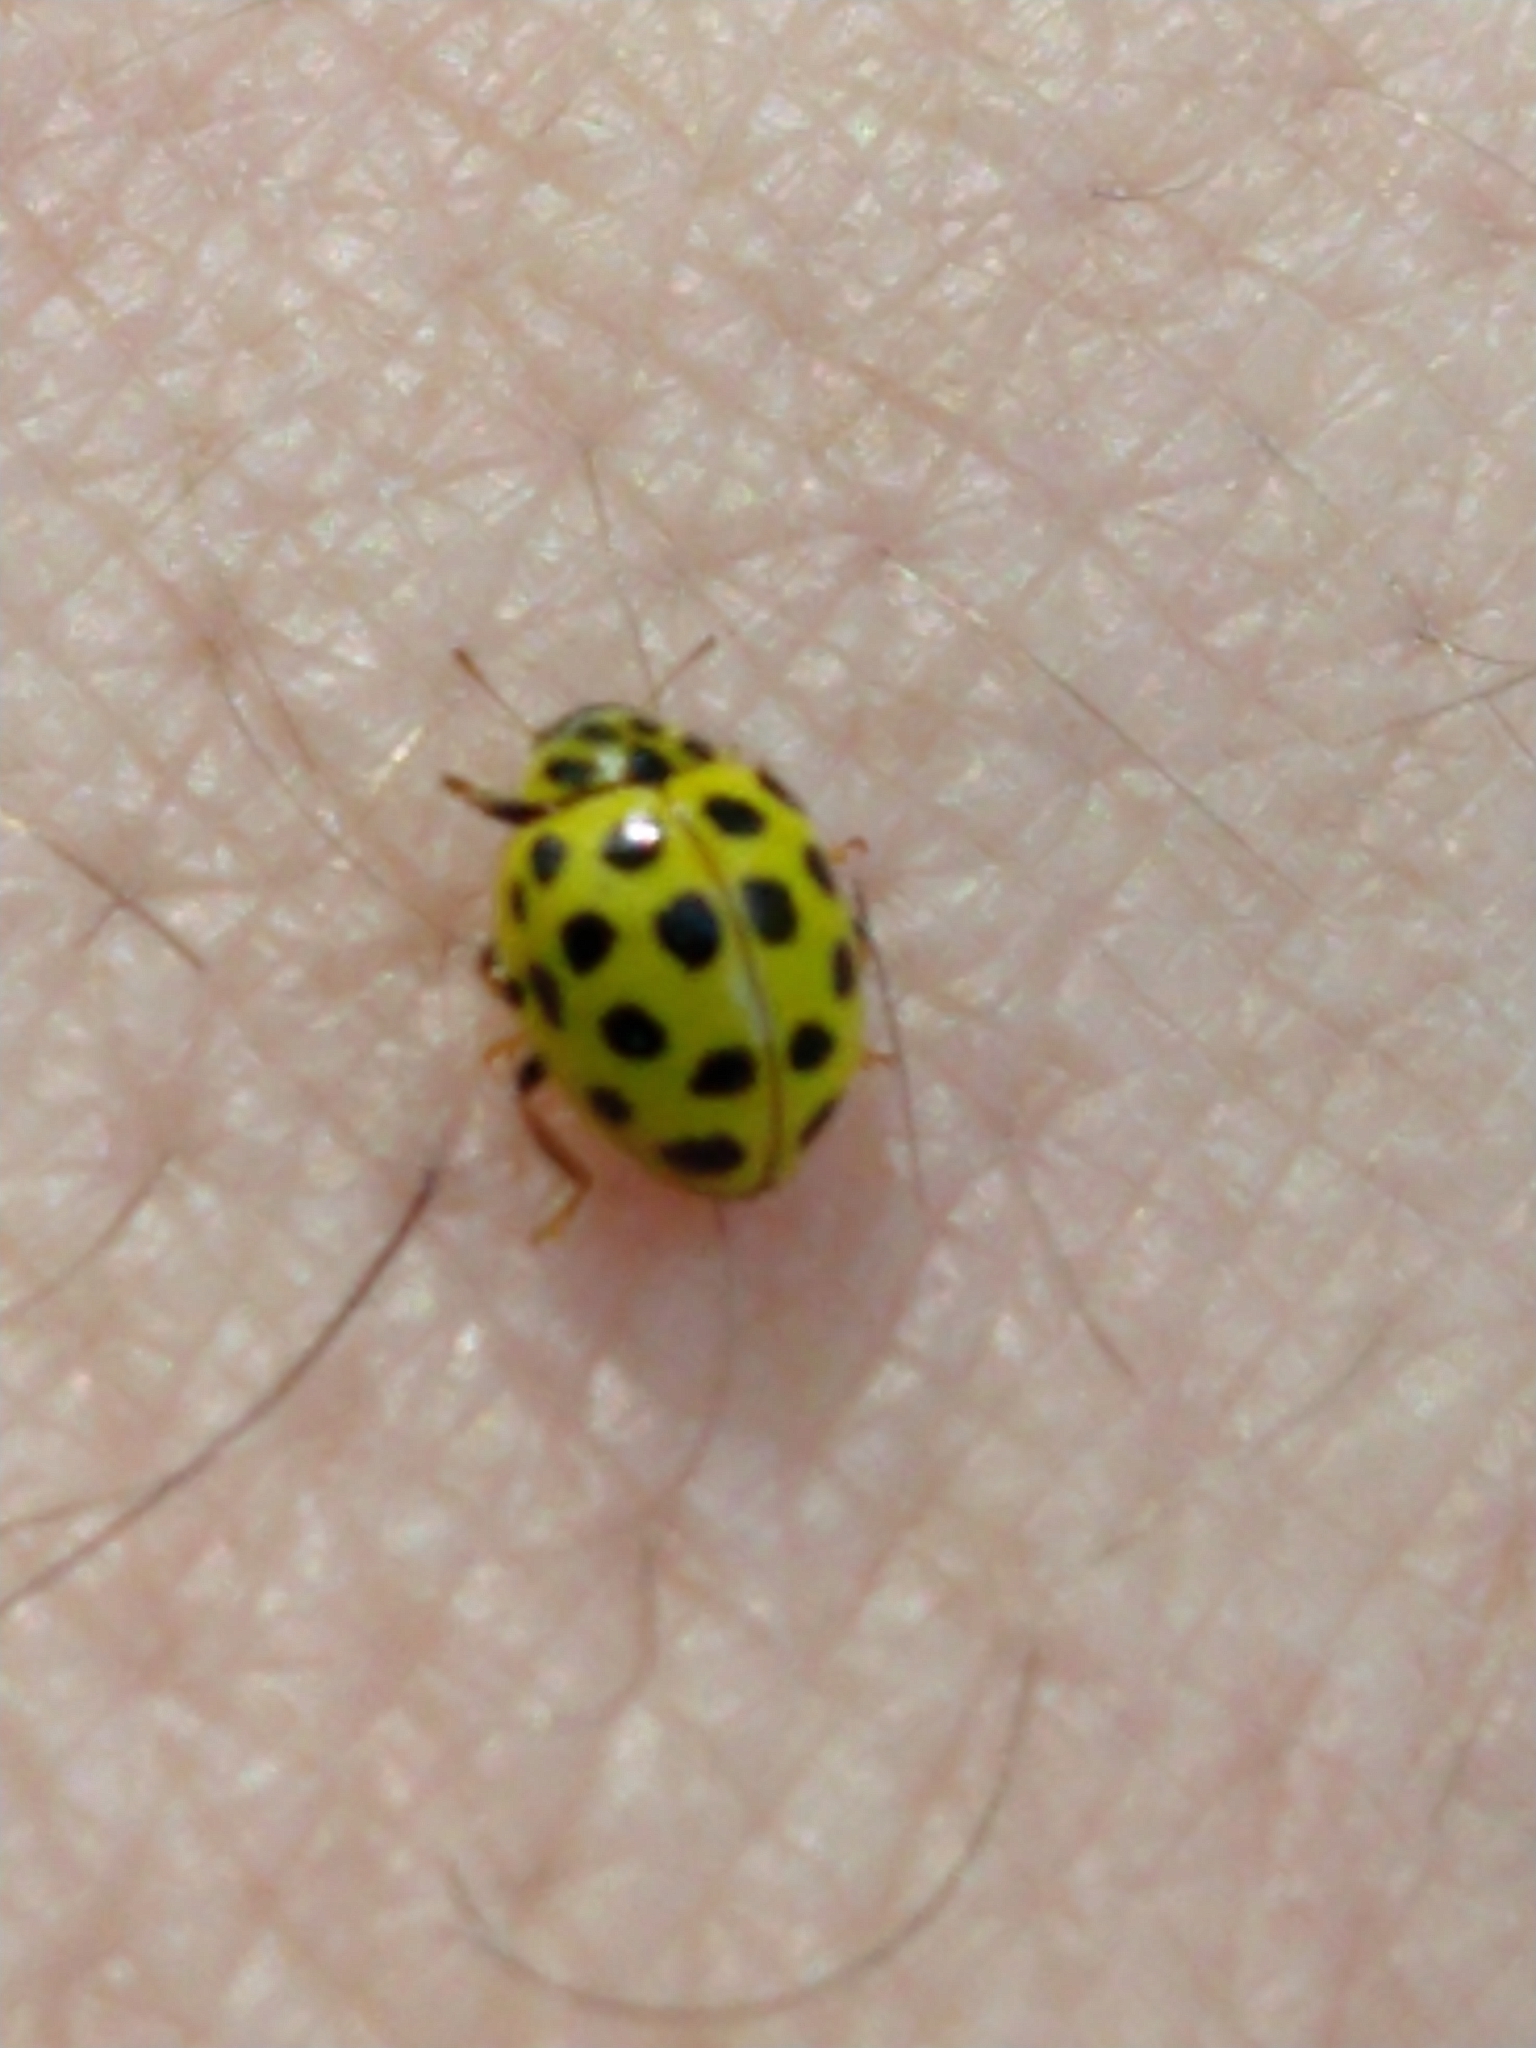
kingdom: Animalia
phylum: Arthropoda
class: Insecta
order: Coleoptera
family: Coccinellidae
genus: Psyllobora
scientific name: Psyllobora vigintiduopunctata
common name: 22-spot ladybird
